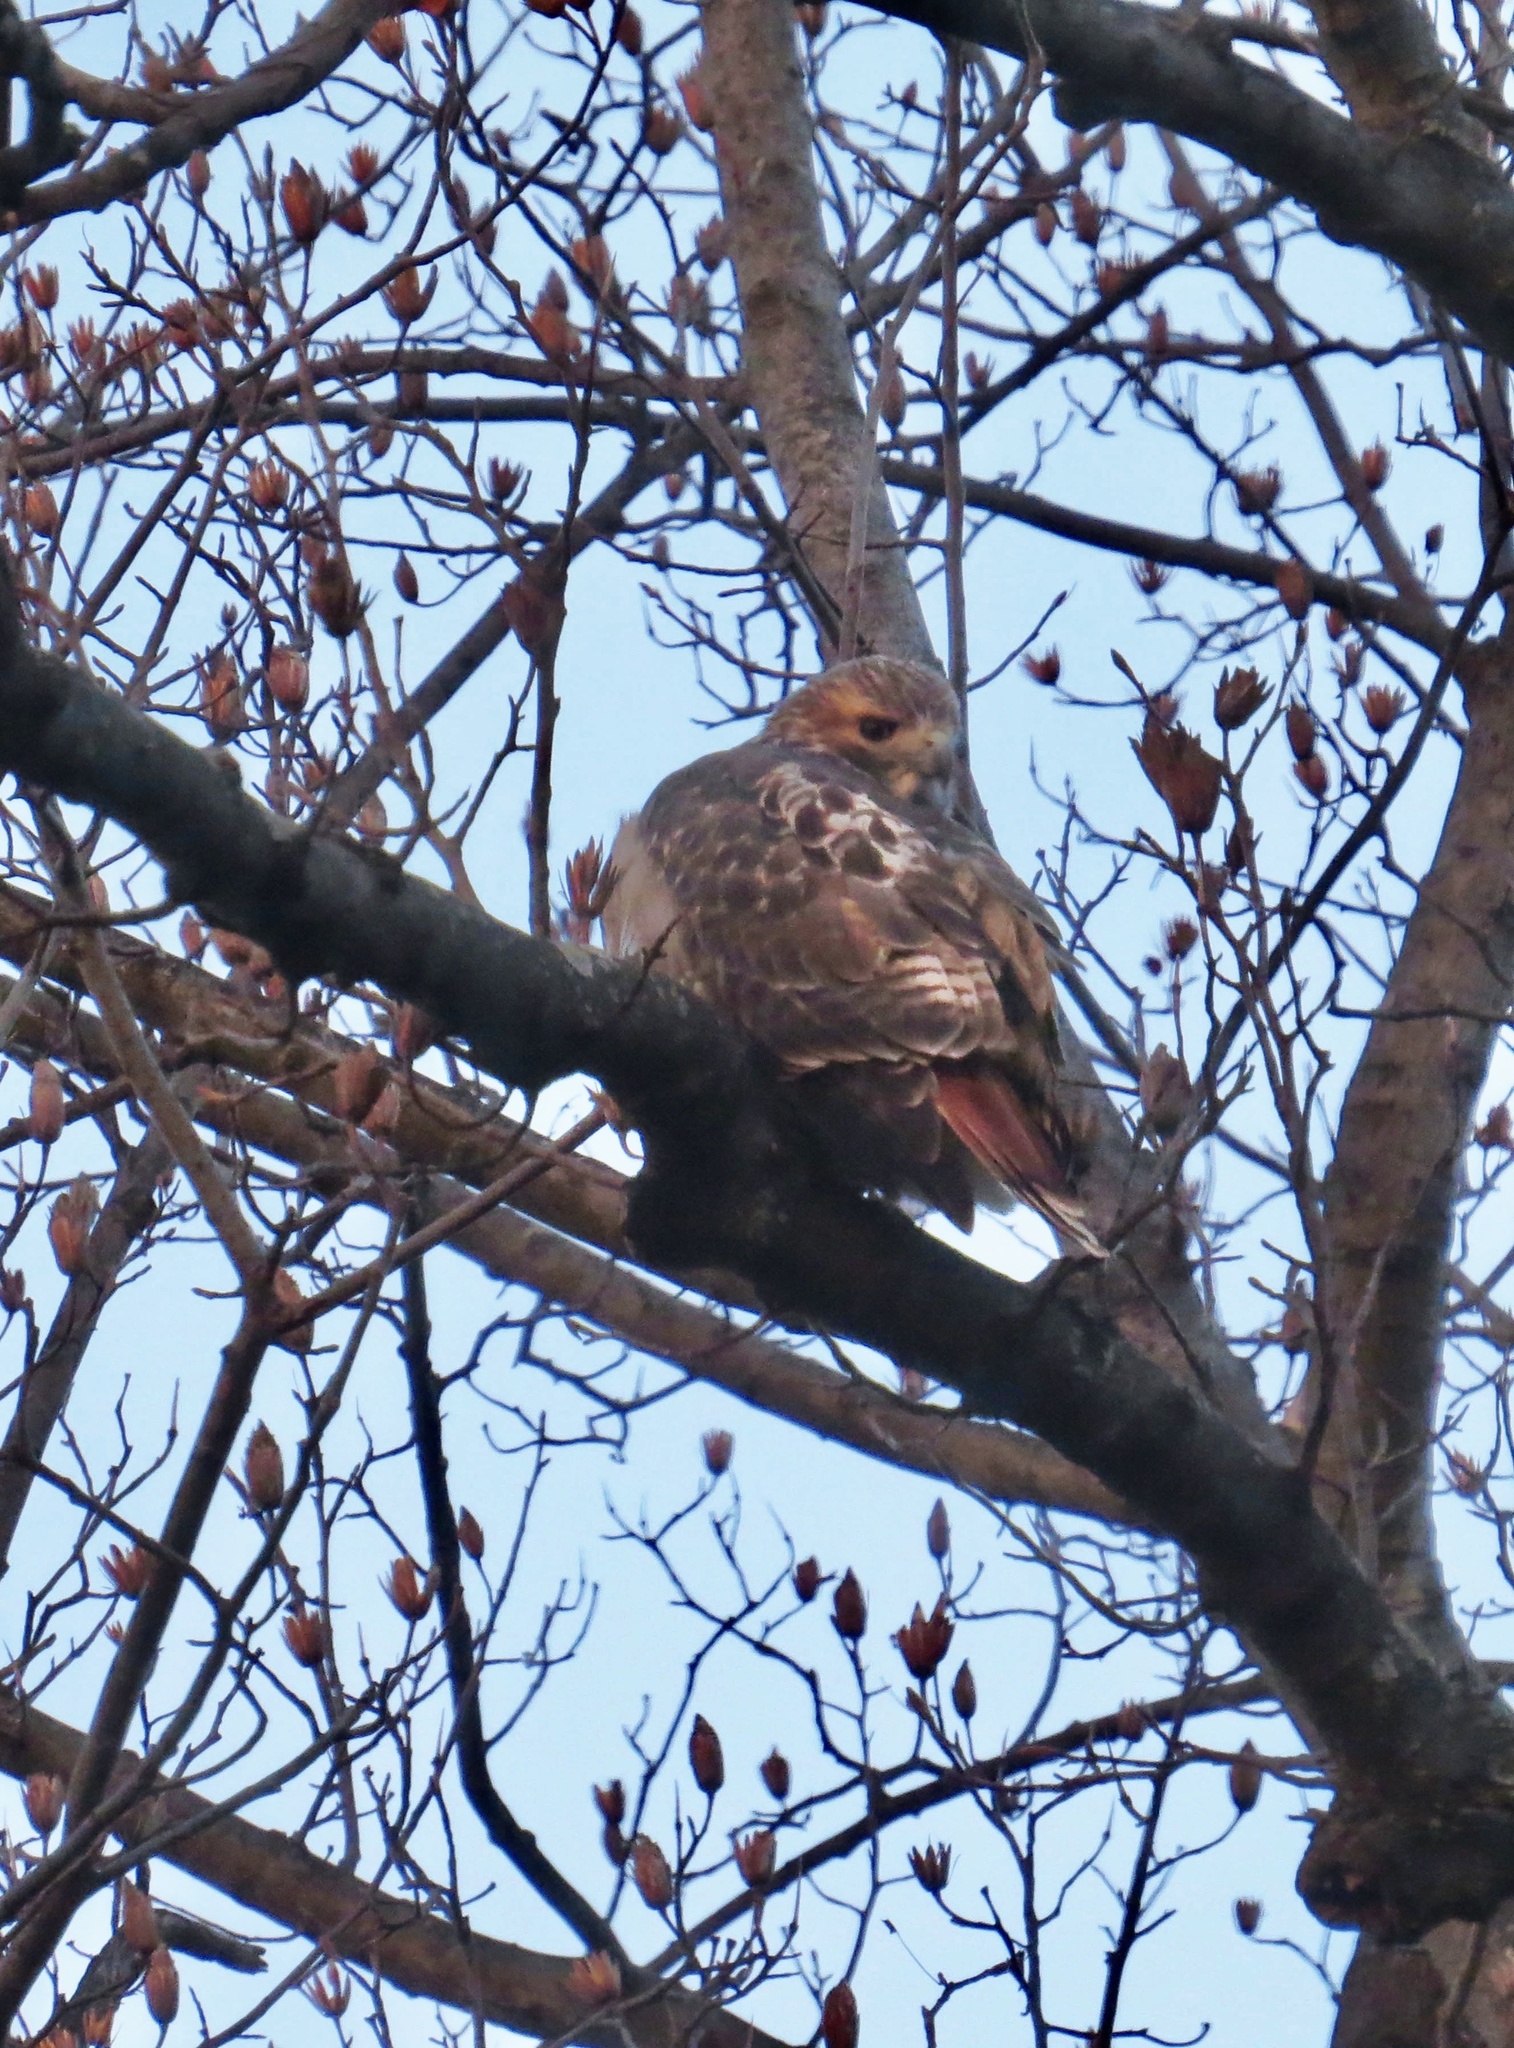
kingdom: Animalia
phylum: Chordata
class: Aves
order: Accipitriformes
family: Accipitridae
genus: Buteo
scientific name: Buteo jamaicensis
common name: Red-tailed hawk
